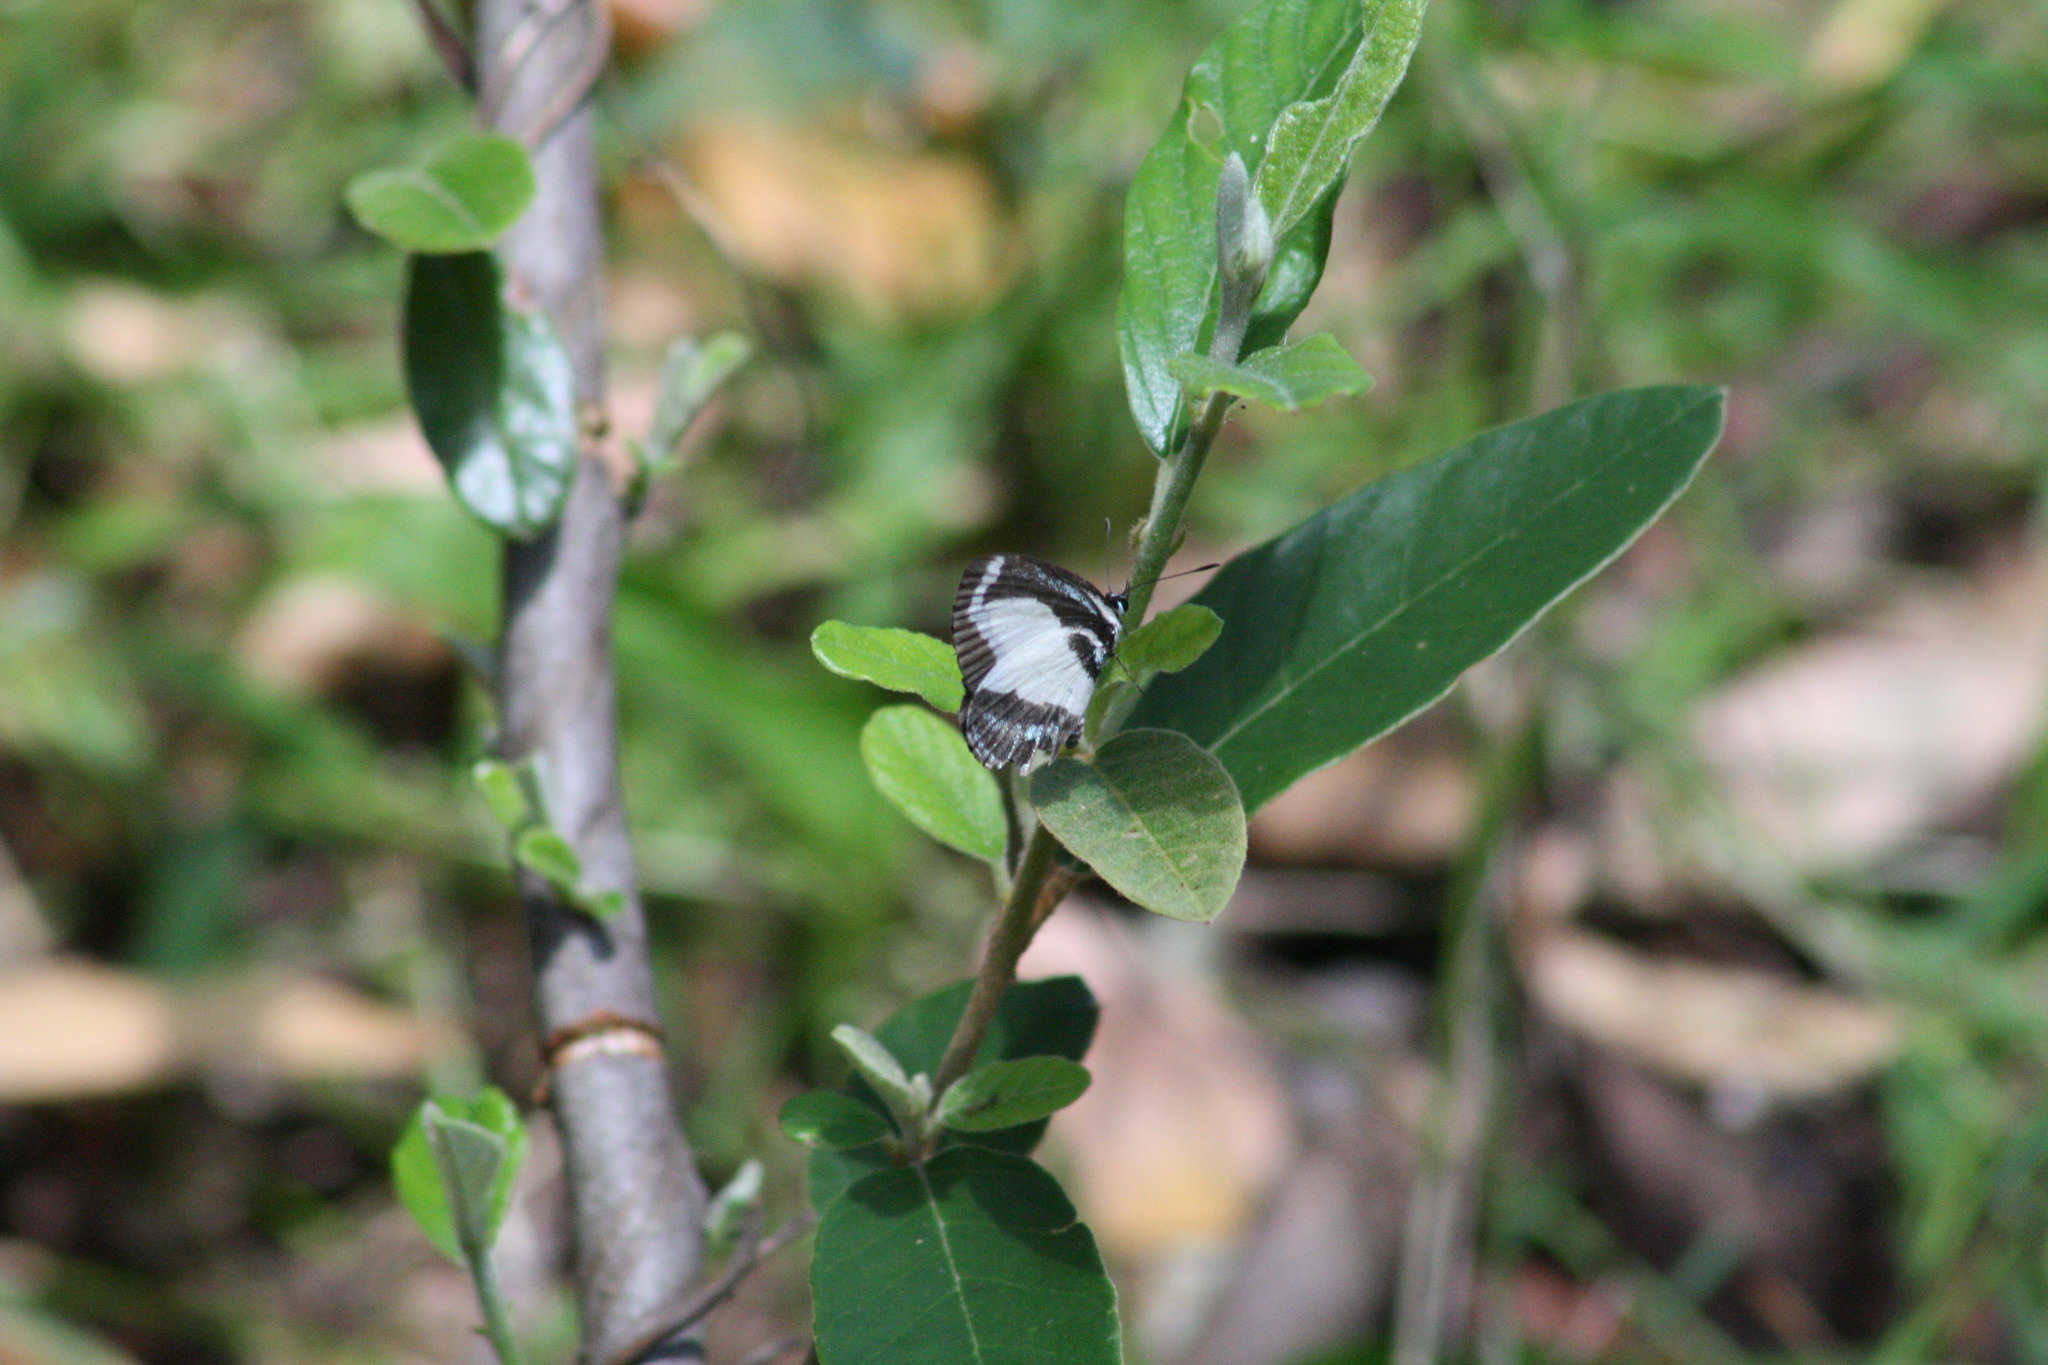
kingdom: Animalia
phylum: Arthropoda
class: Insecta
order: Lepidoptera
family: Lycaenidae
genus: Psychonotis
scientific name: Psychonotis caelius
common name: Small green banded blue
